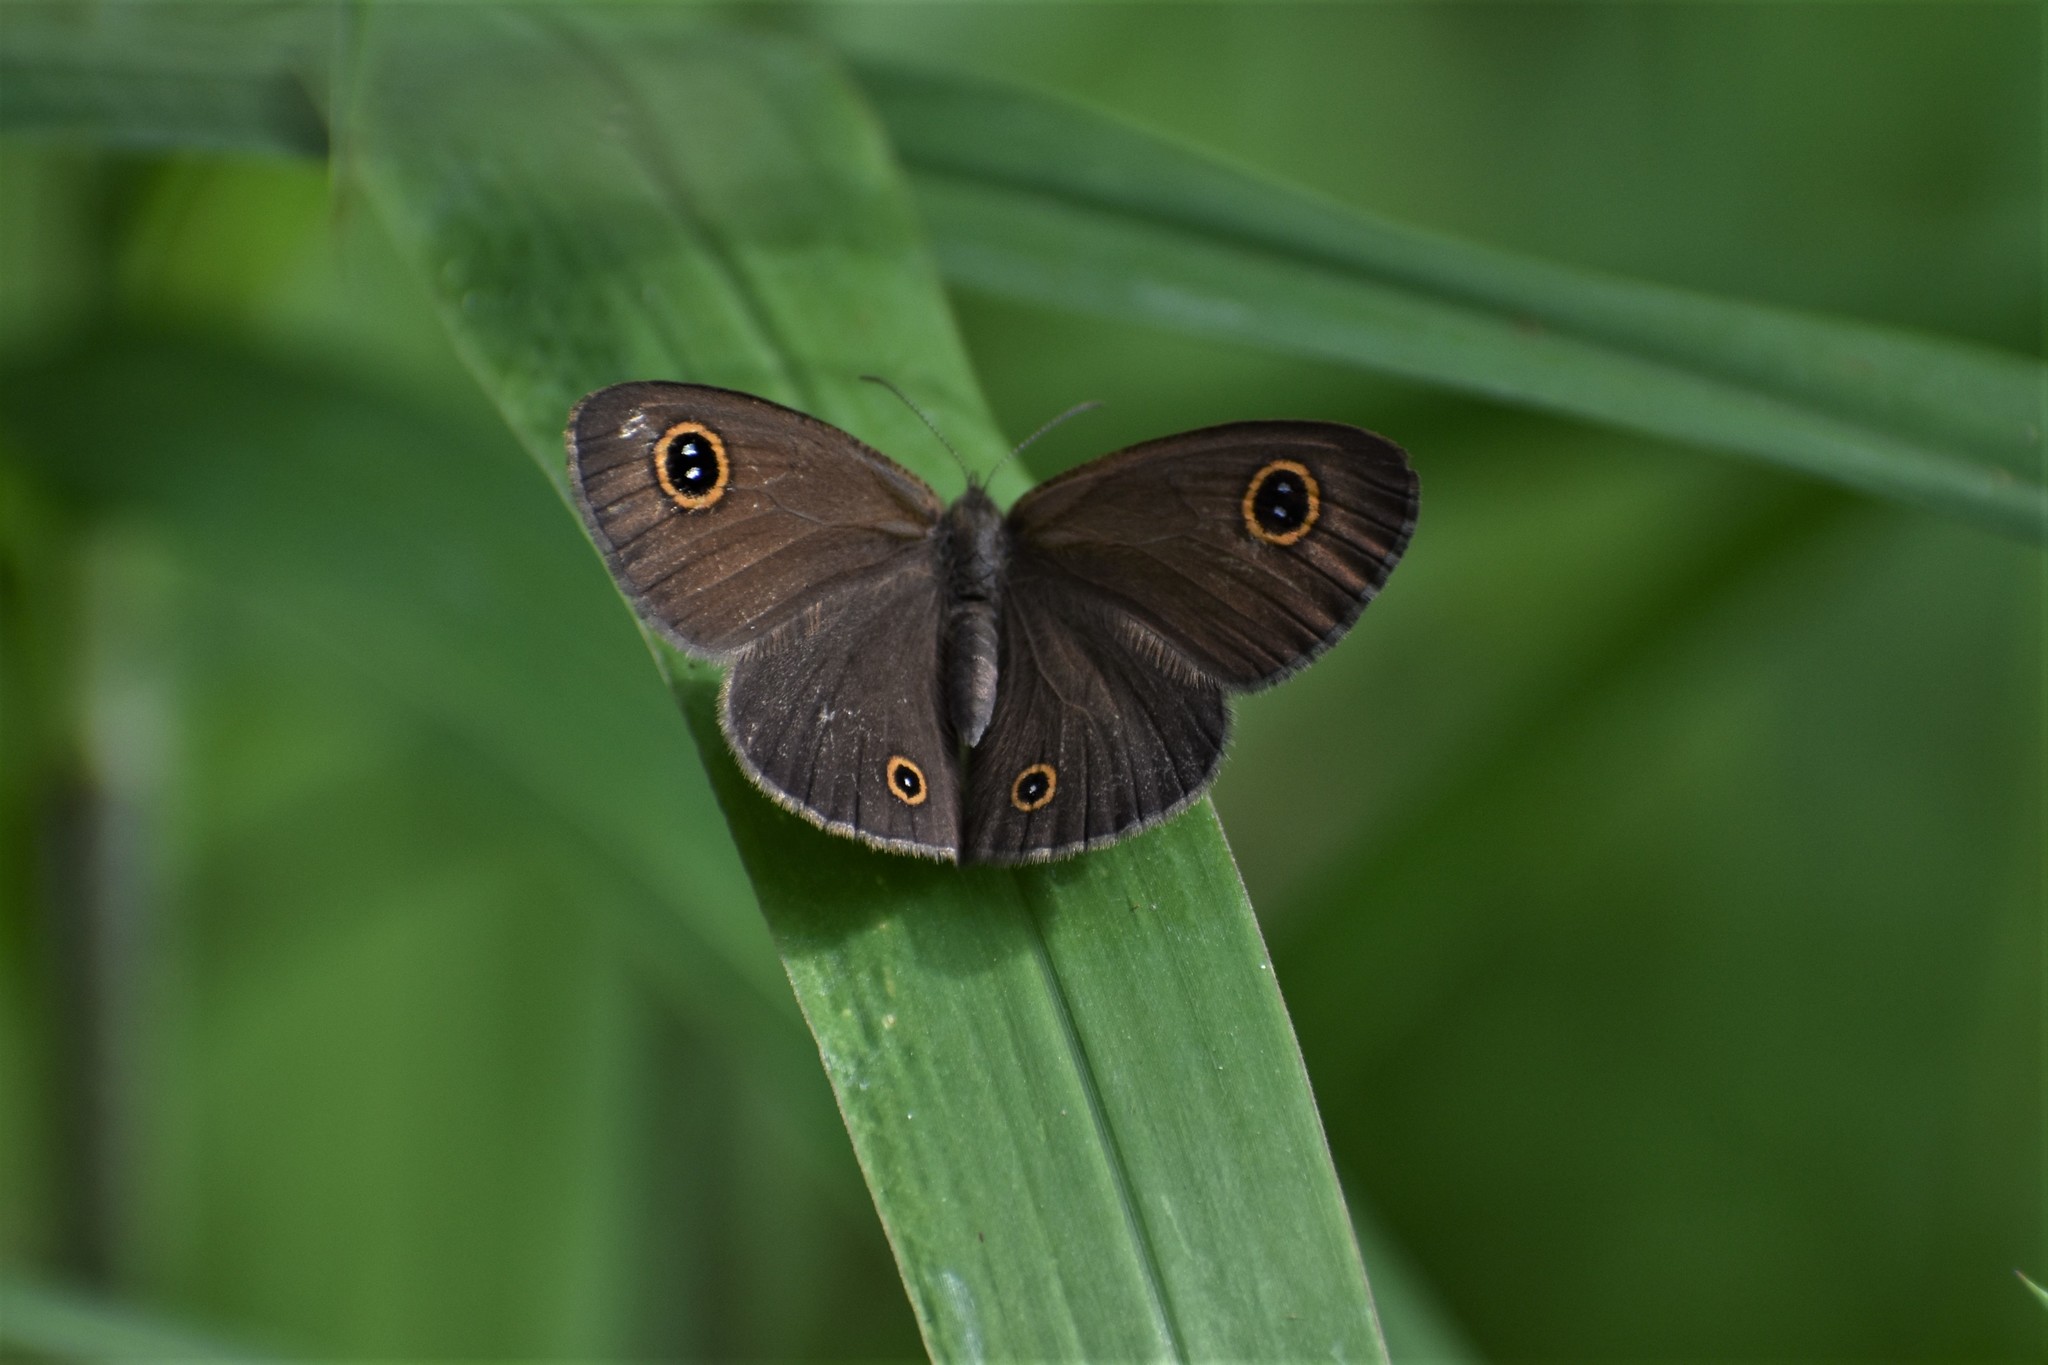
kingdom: Animalia
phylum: Arthropoda
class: Insecta
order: Lepidoptera
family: Nymphalidae
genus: Ypthima
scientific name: Ypthima arctous
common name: Dusky knight
